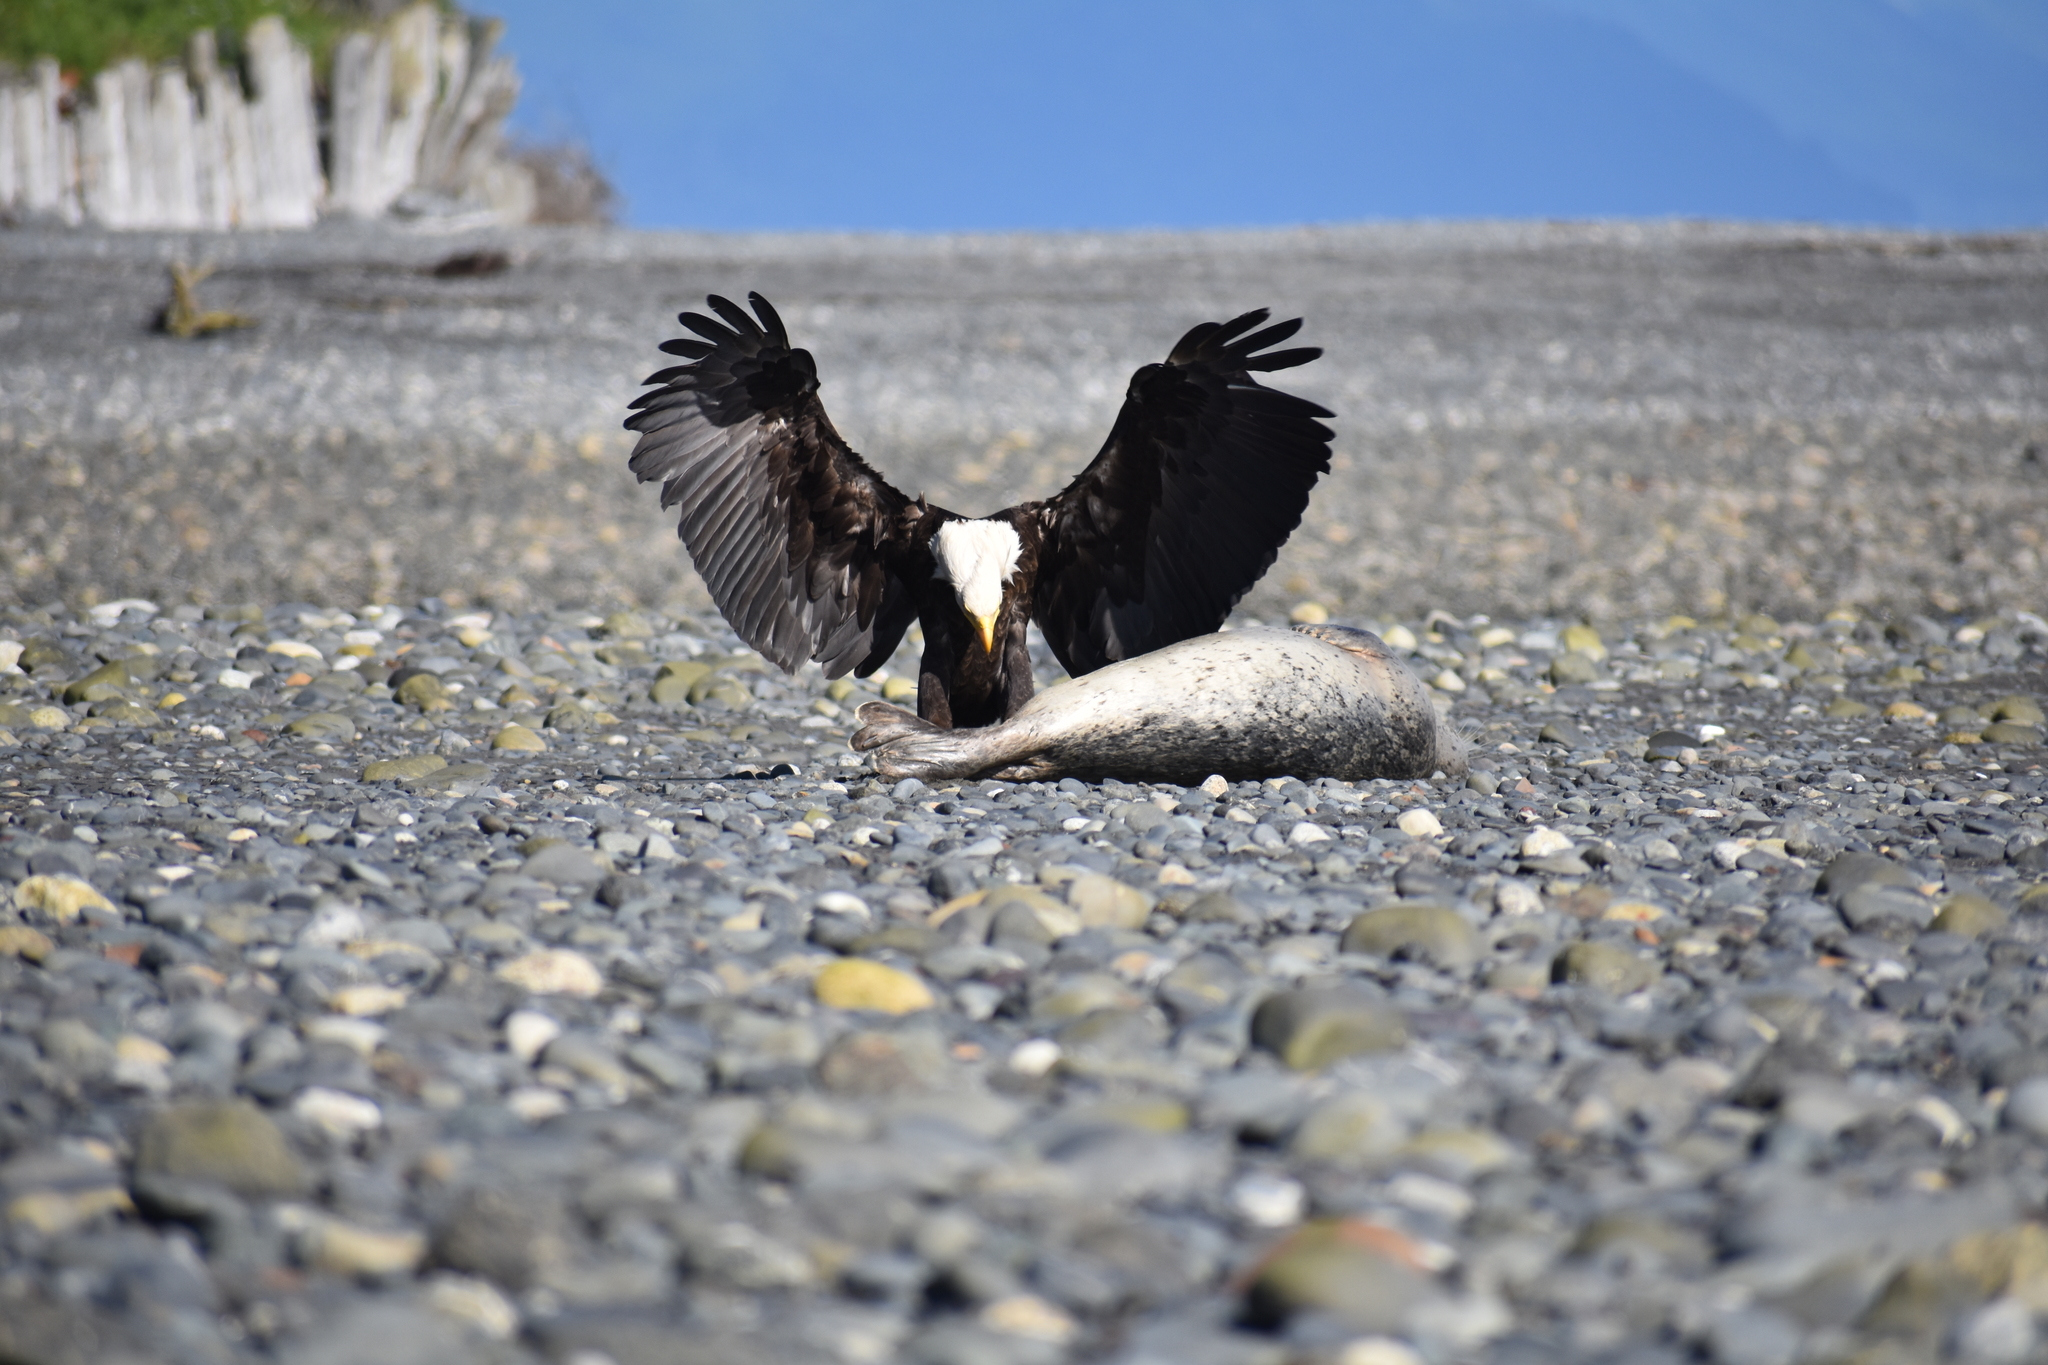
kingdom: Animalia
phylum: Chordata
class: Aves
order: Accipitriformes
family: Accipitridae
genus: Haliaeetus
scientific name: Haliaeetus leucocephalus
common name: Bald eagle
